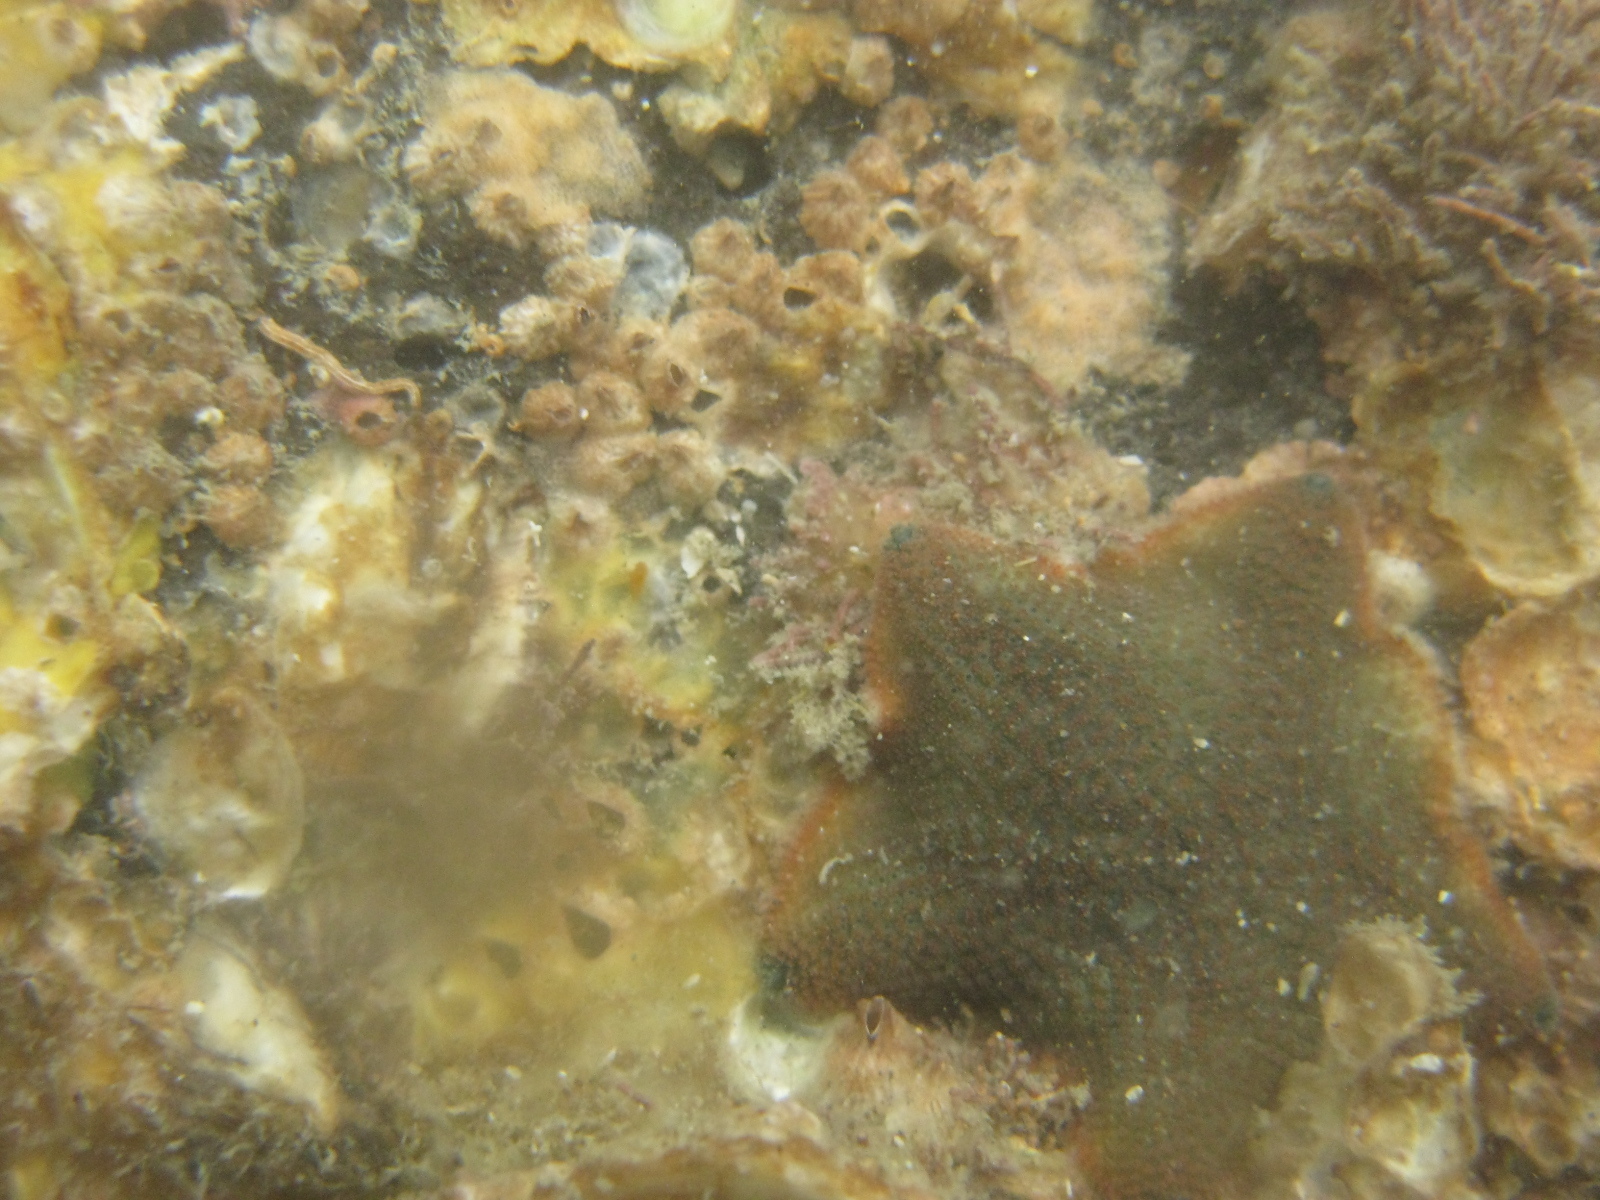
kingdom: Animalia
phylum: Arthropoda
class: Maxillopoda
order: Sessilia
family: Balanidae
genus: Balanus
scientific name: Balanus trigonus
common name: Triangle barnacle
